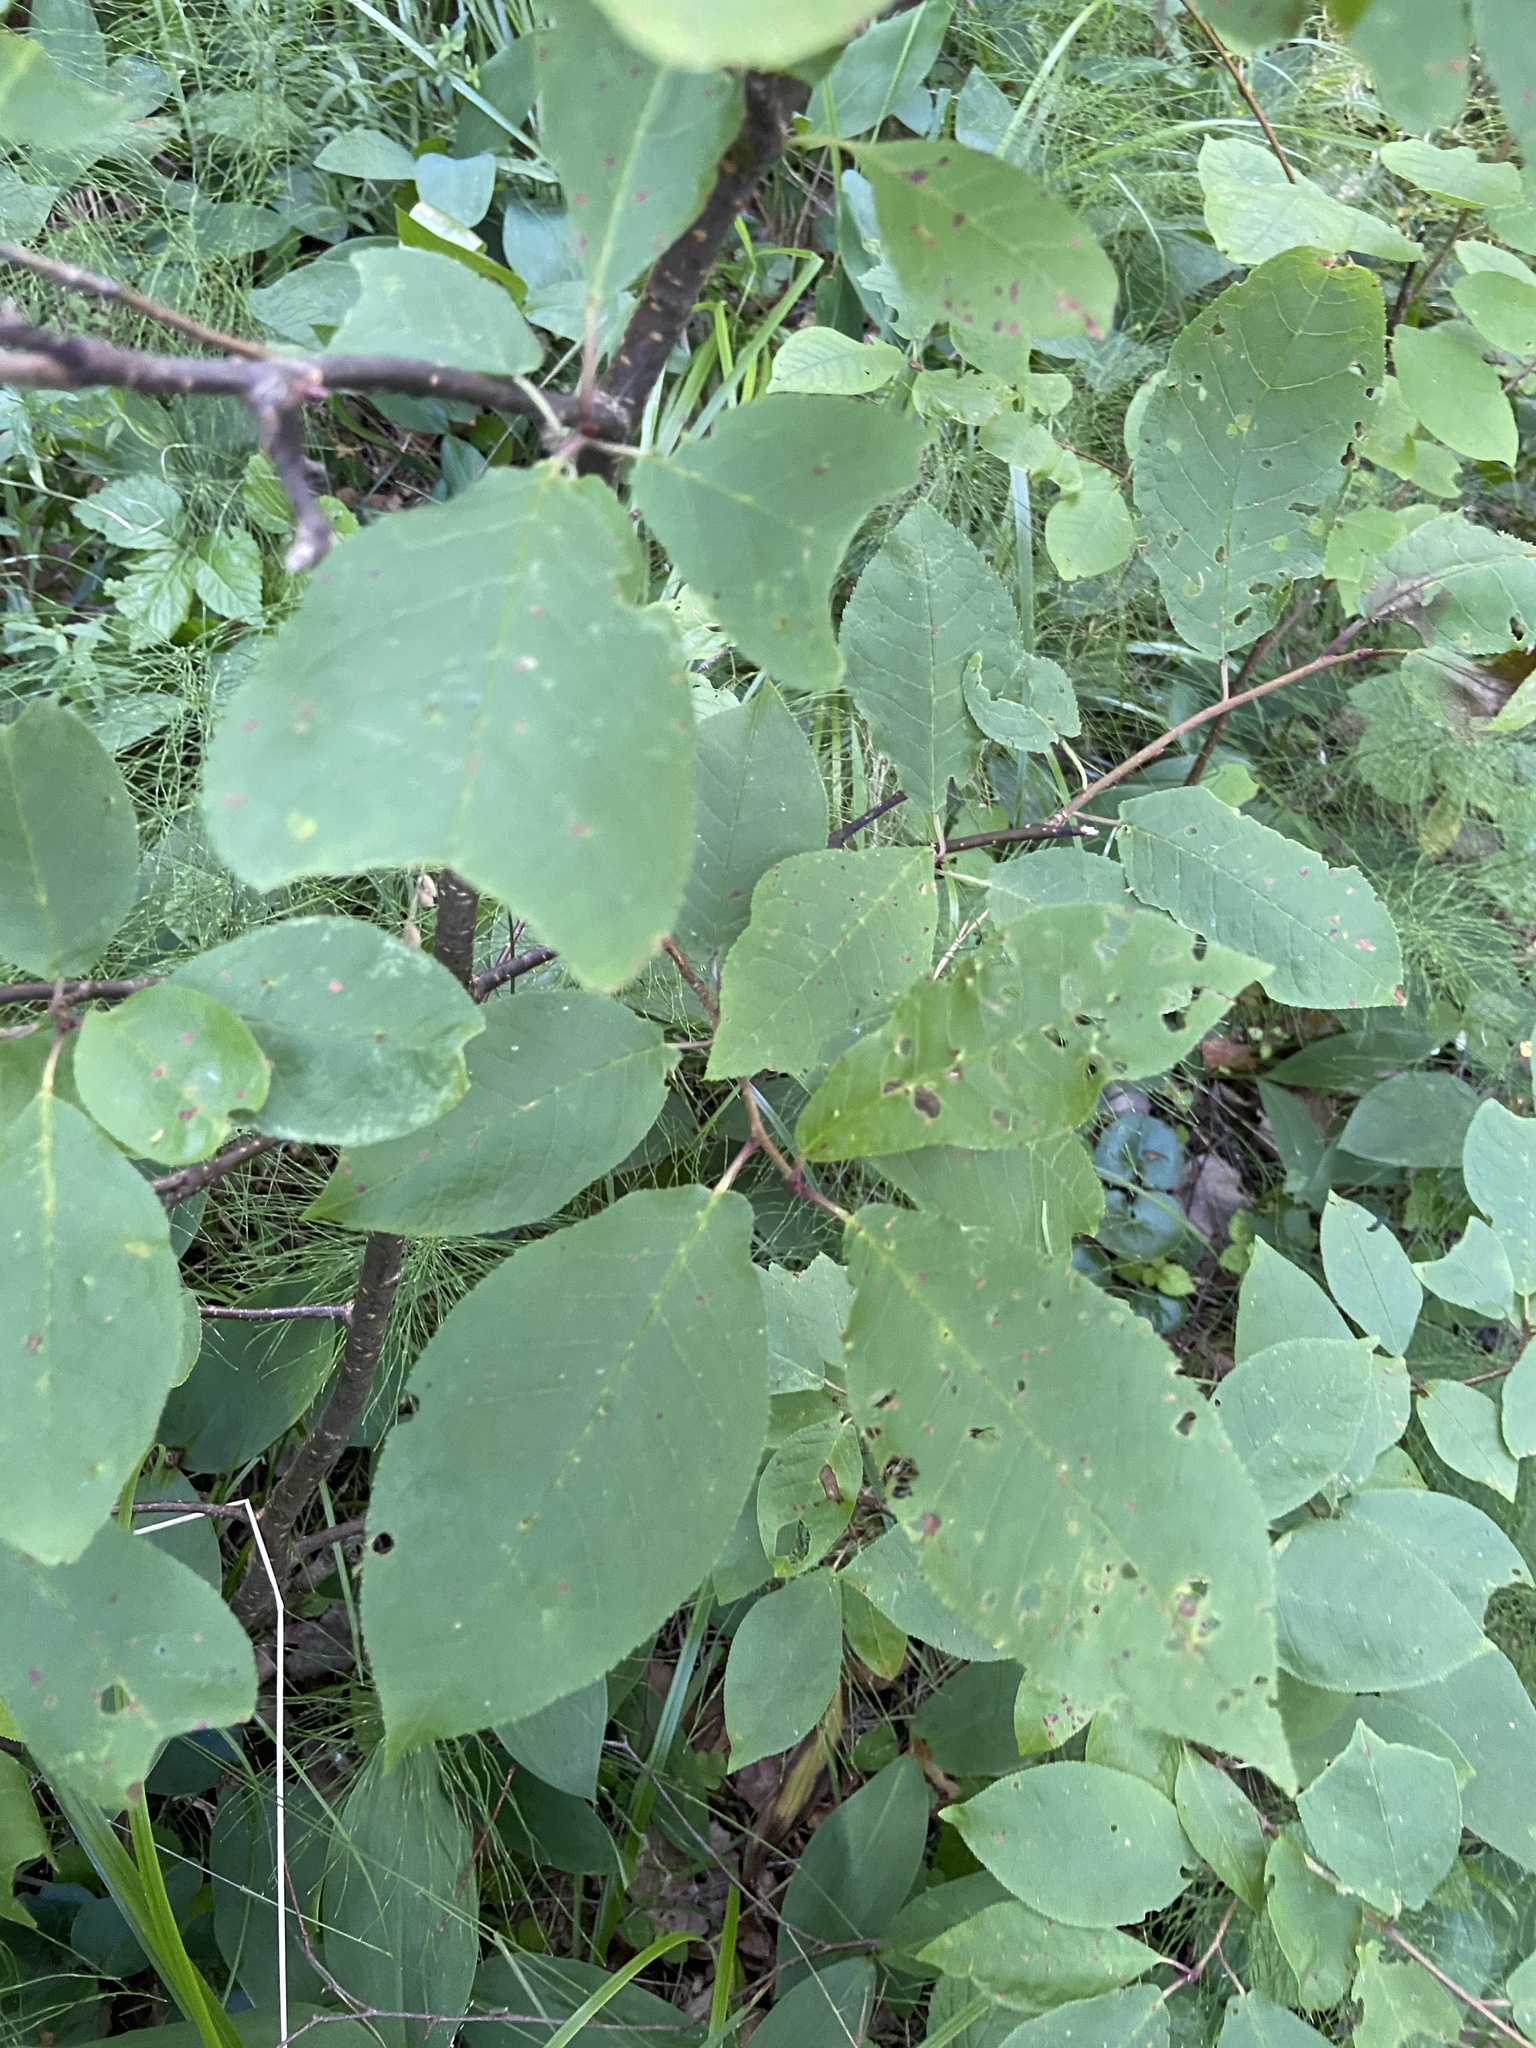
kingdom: Plantae
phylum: Tracheophyta
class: Magnoliopsida
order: Rosales
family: Rosaceae
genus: Prunus
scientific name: Prunus padus
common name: Bird cherry
